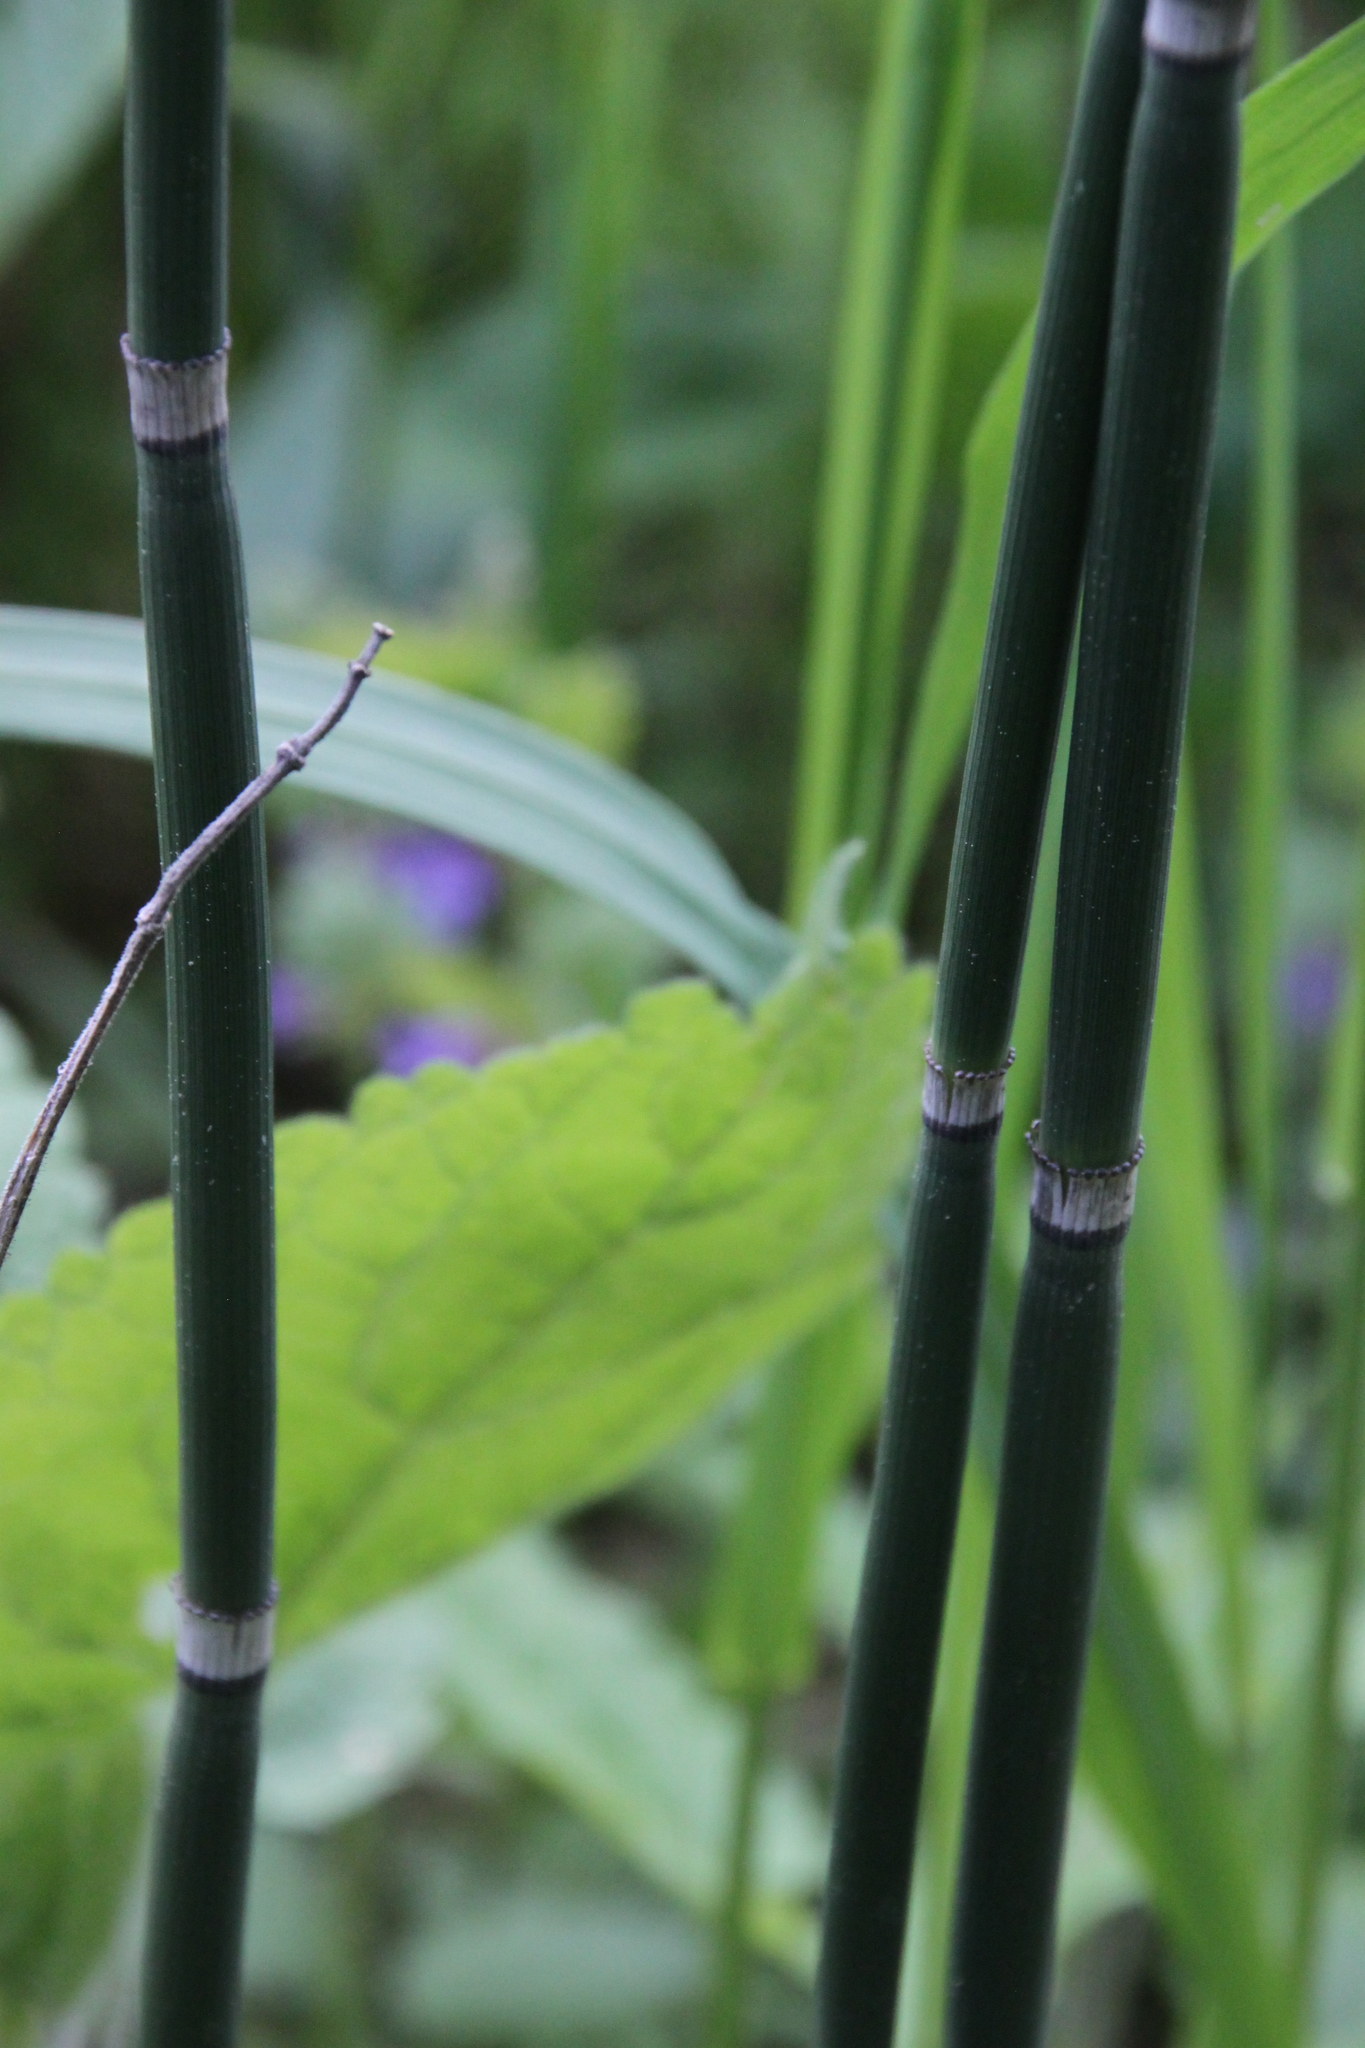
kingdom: Plantae
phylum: Tracheophyta
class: Polypodiopsida
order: Equisetales
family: Equisetaceae
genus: Equisetum
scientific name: Equisetum hyemale
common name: Rough horsetail
